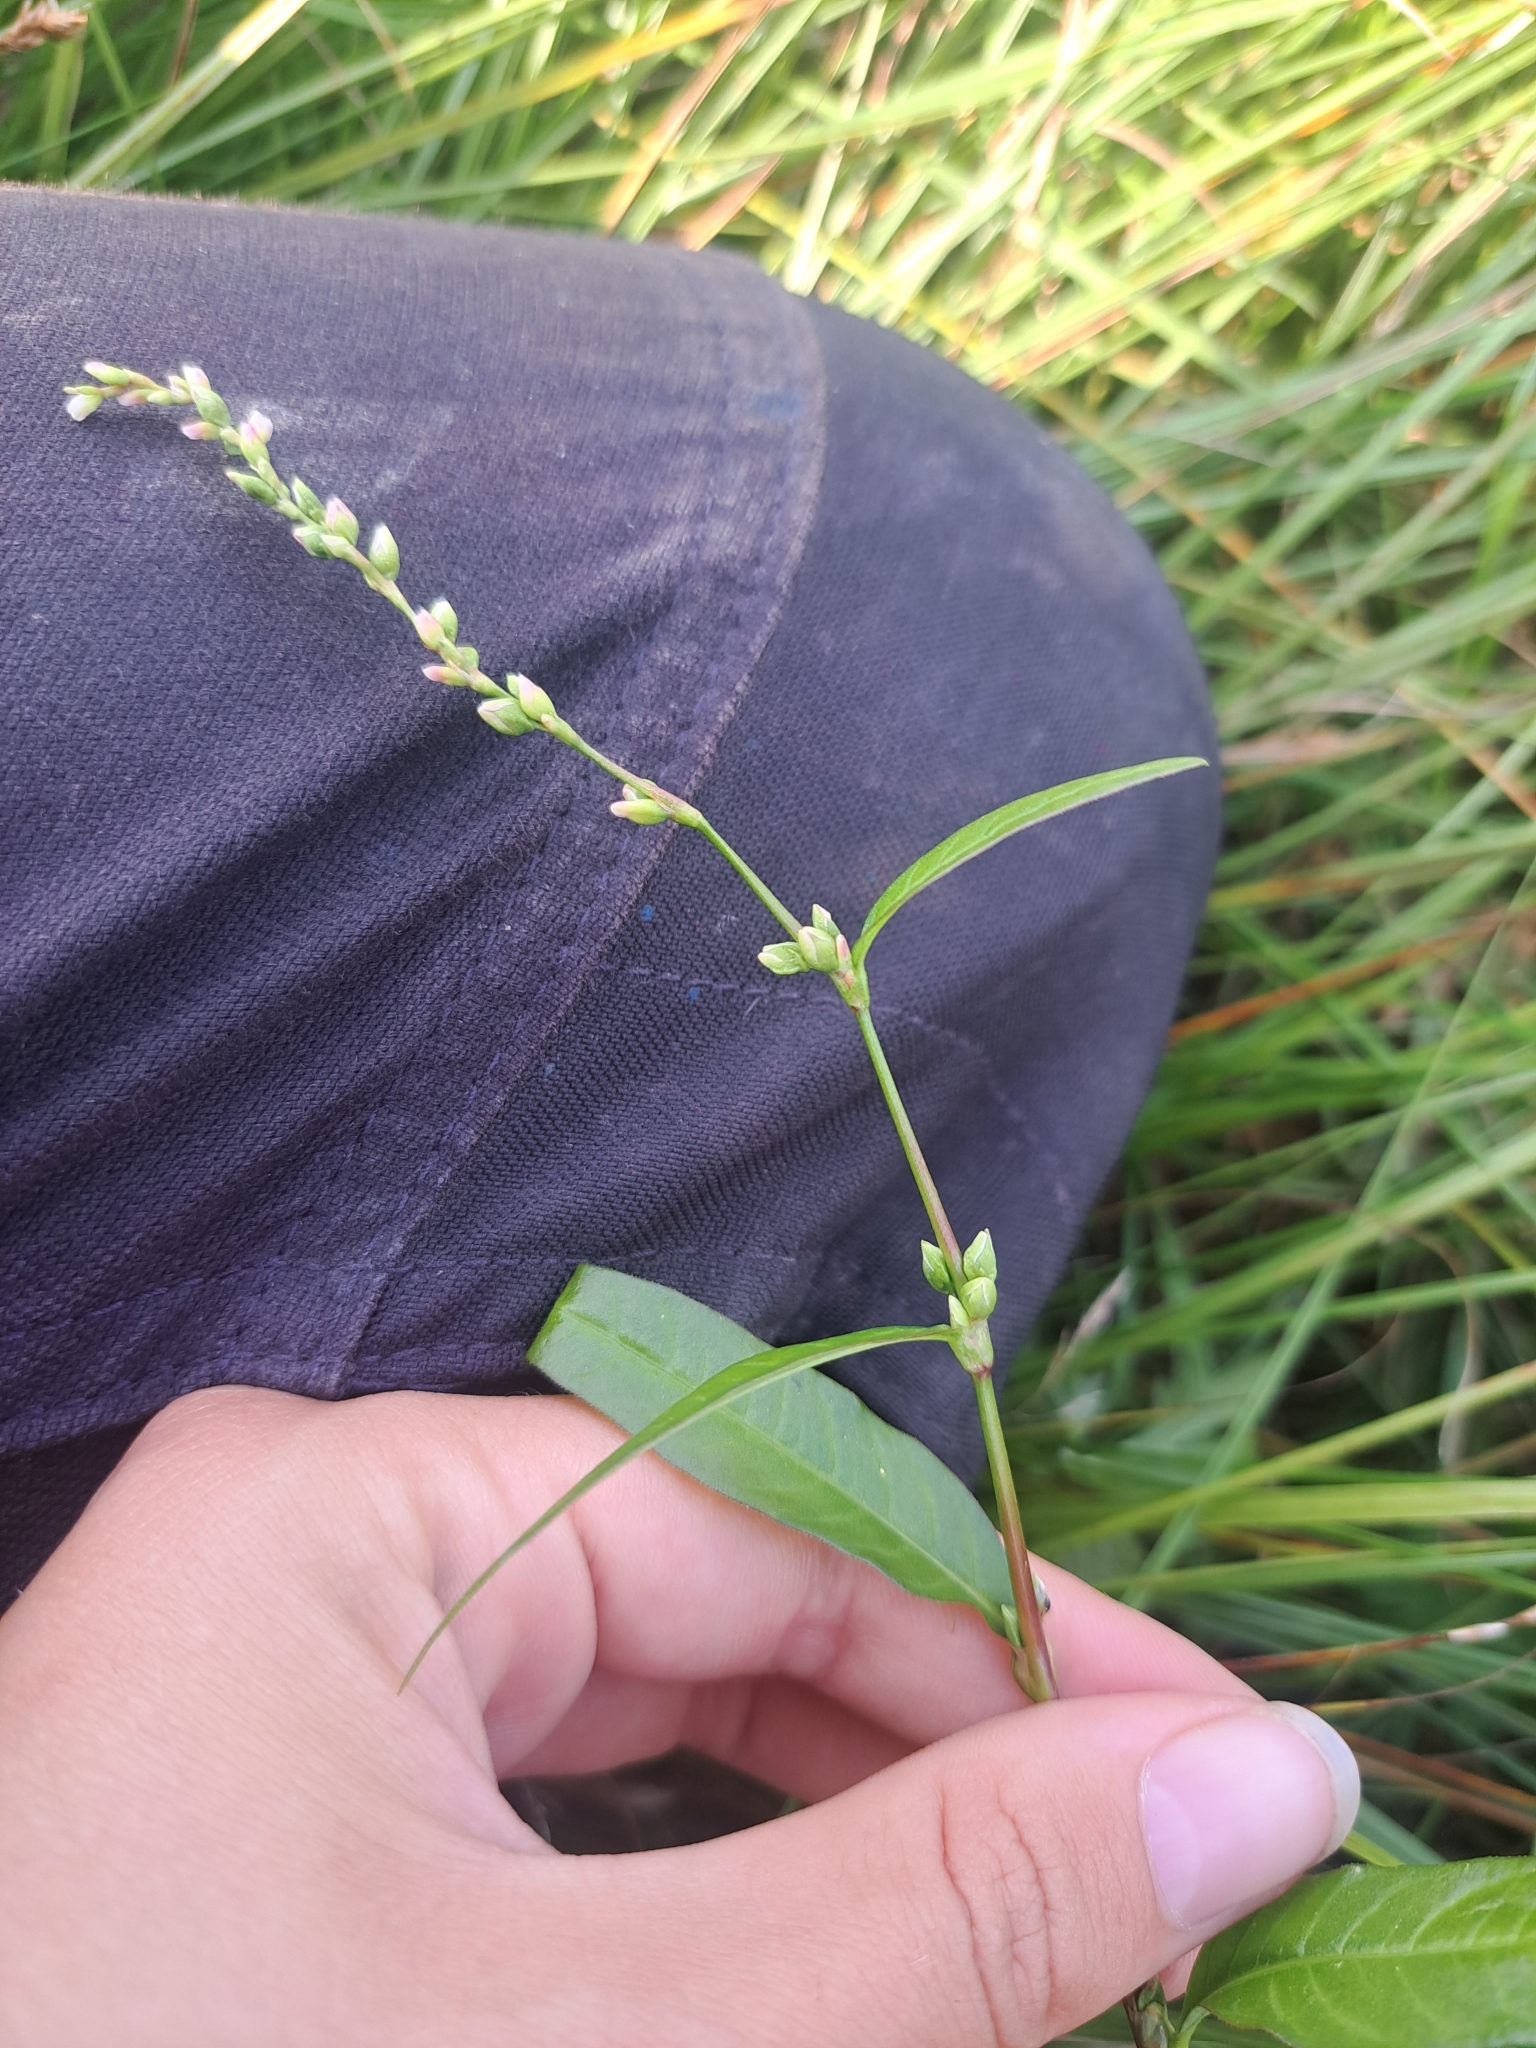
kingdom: Plantae
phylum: Tracheophyta
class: Magnoliopsida
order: Caryophyllales
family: Polygonaceae
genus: Persicaria
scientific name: Persicaria punctata
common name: Dotted smartweed
